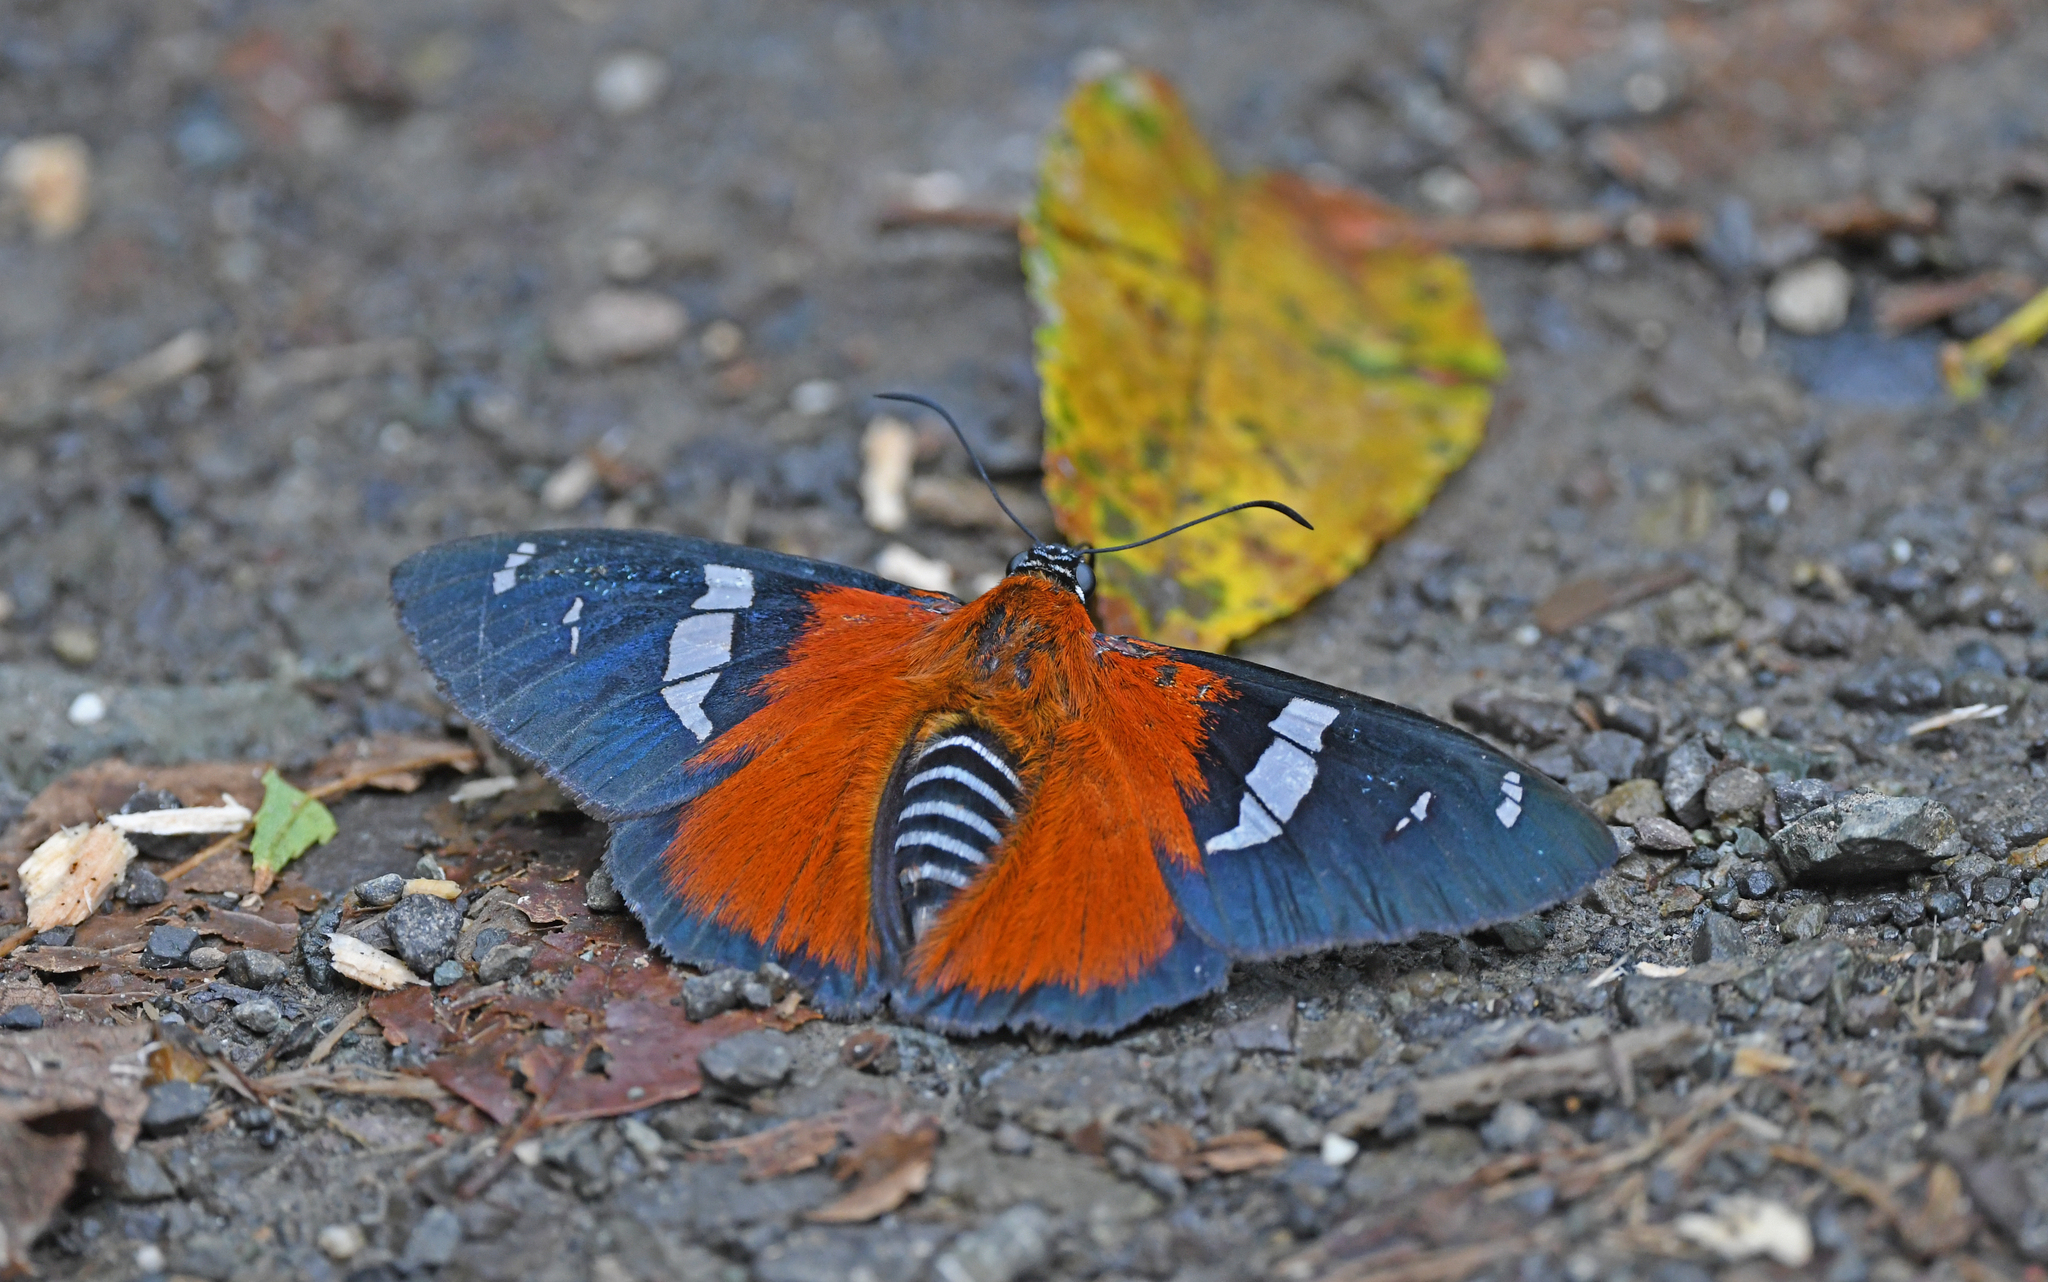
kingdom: Animalia
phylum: Arthropoda
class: Insecta
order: Lepidoptera
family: Hesperiidae
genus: Pyrrhopyge
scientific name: Pyrrhopyge Yanguna spatiosa
